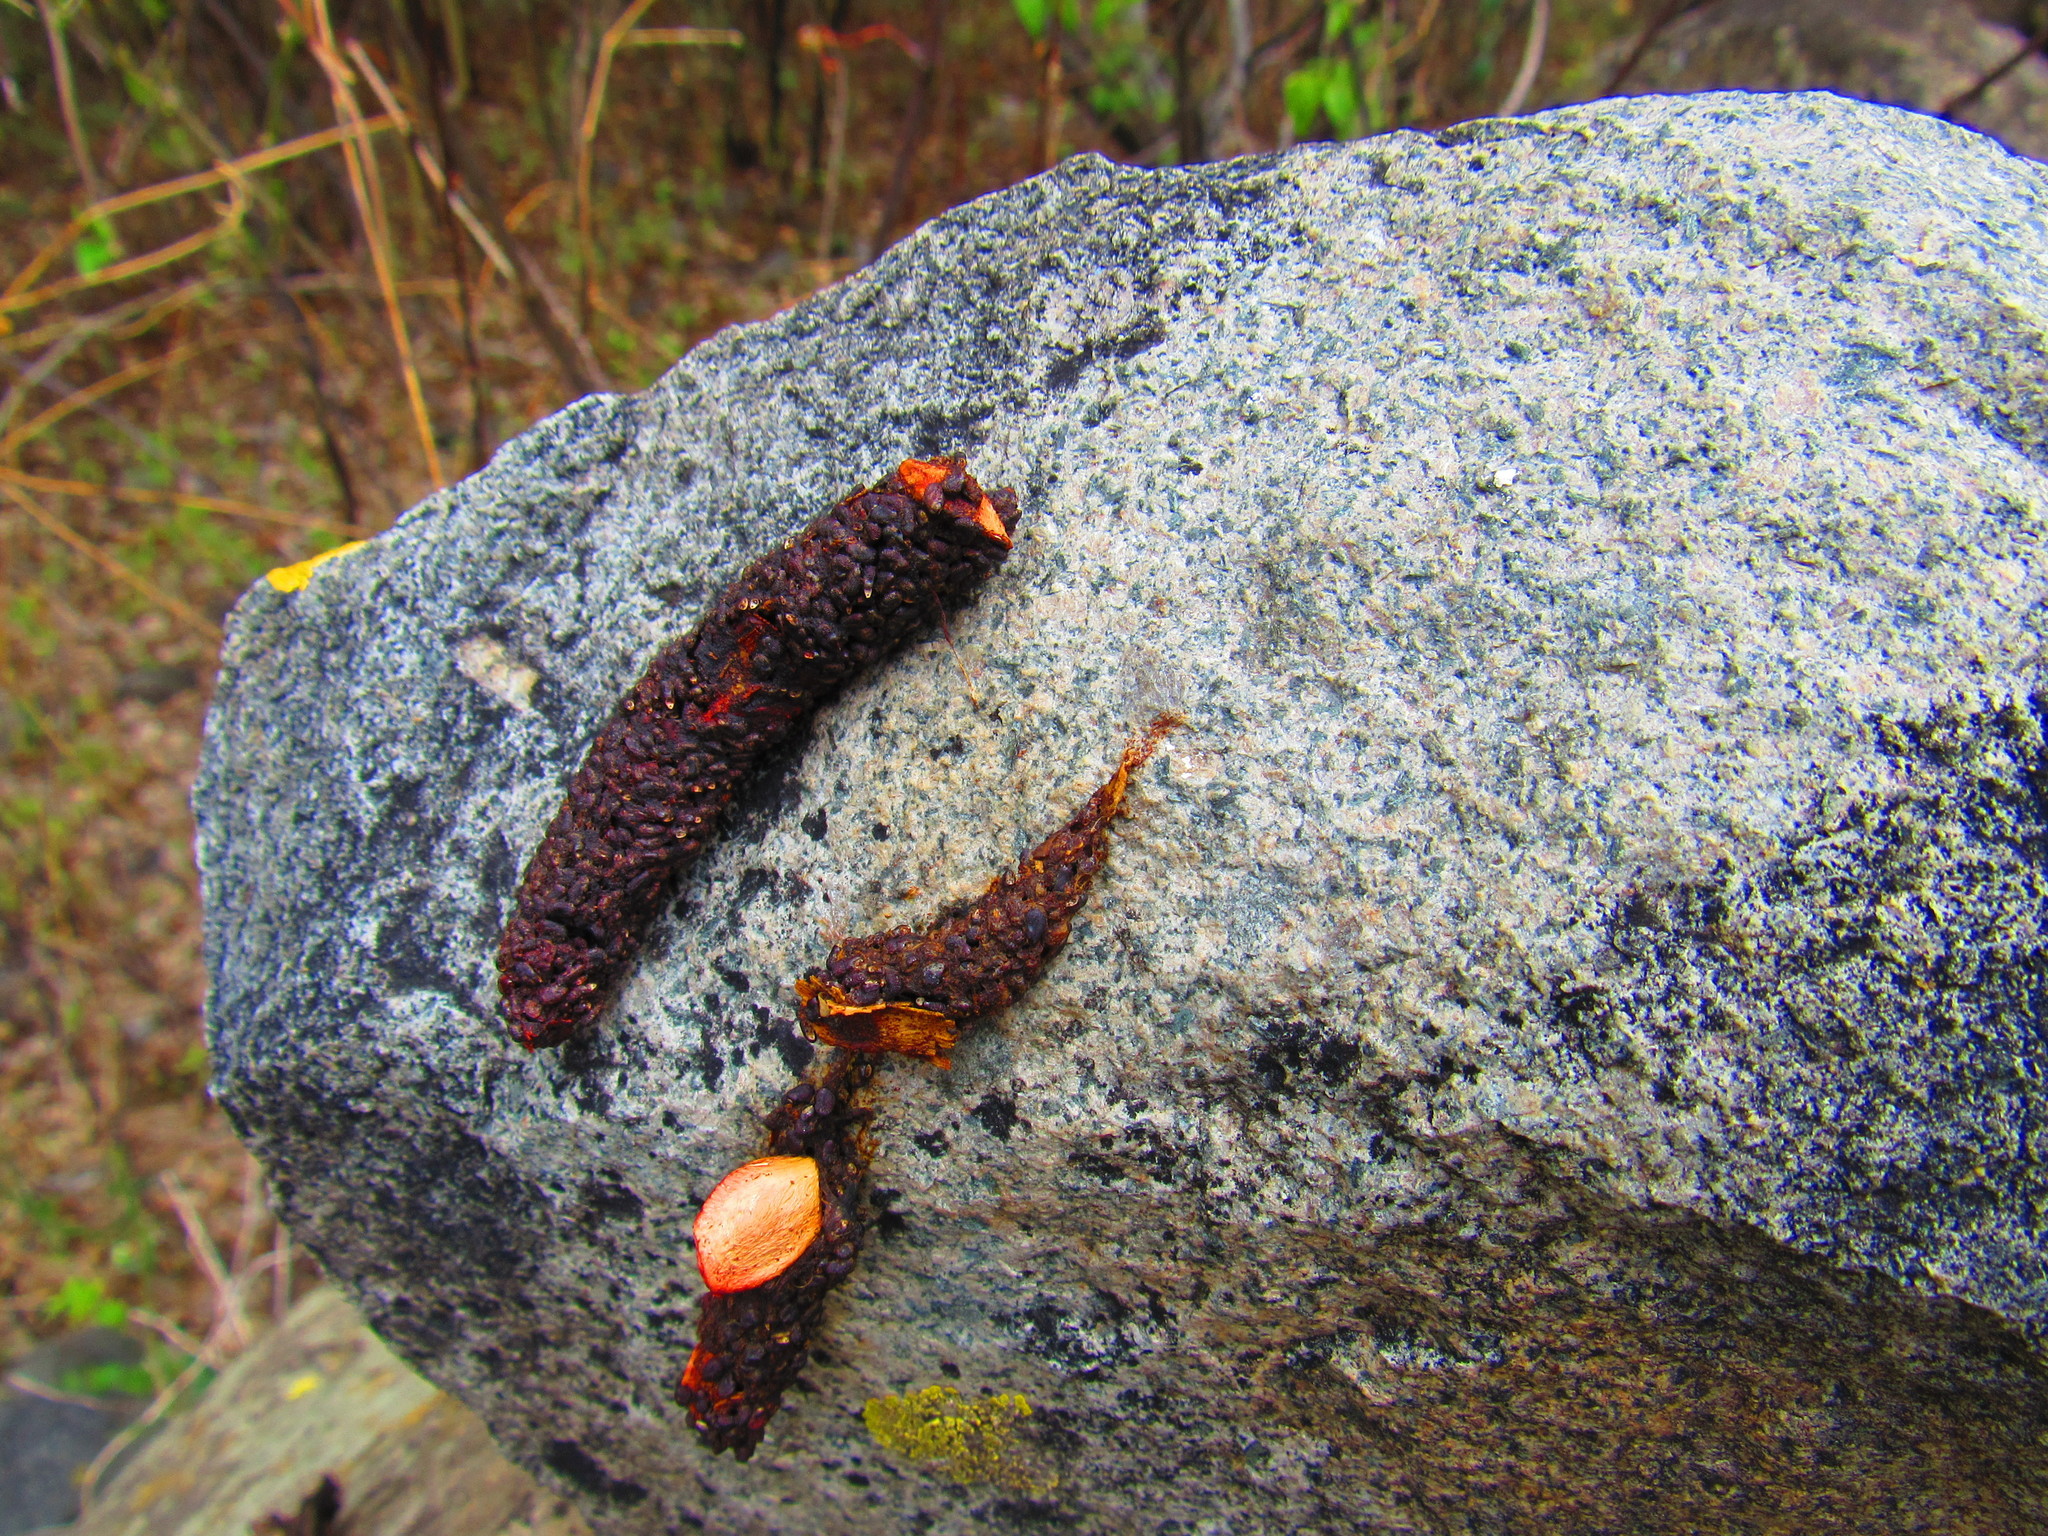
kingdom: Animalia
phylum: Chordata
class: Mammalia
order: Carnivora
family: Procyonidae
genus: Bassariscus
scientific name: Bassariscus astutus
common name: Ringtail
